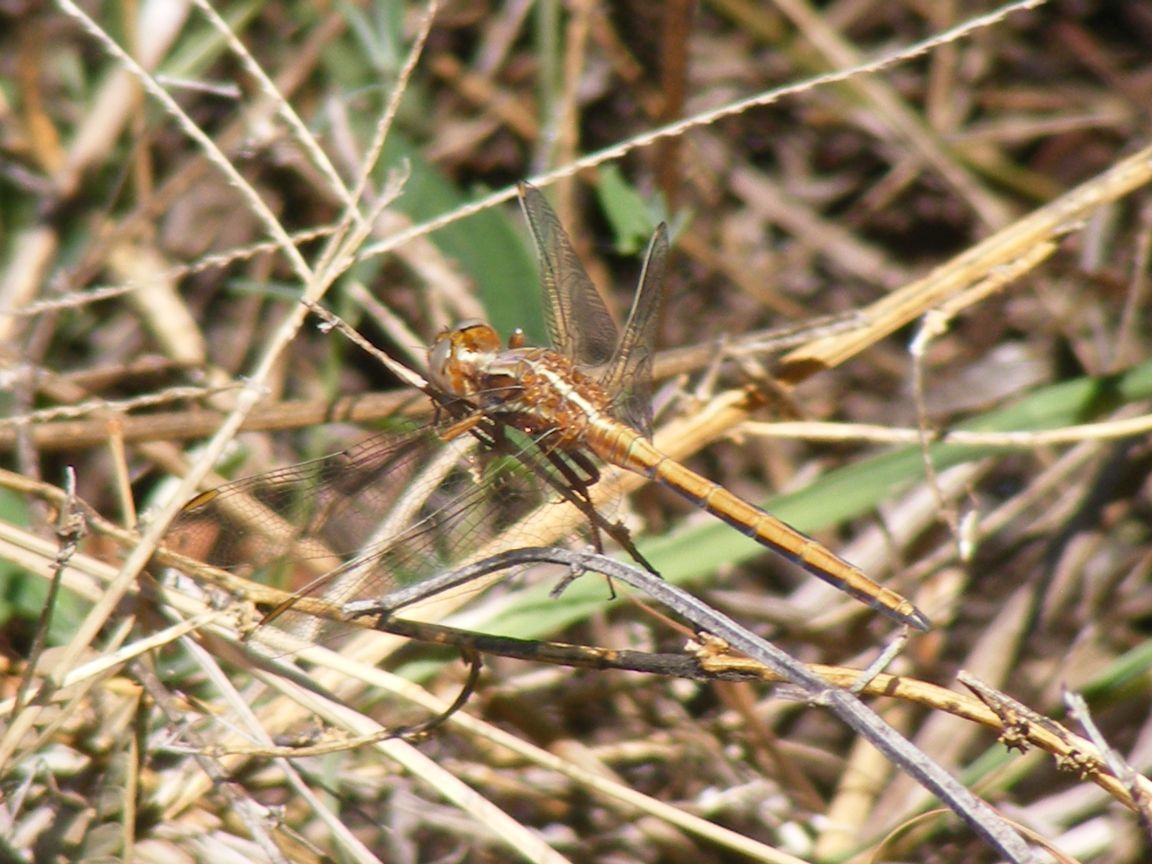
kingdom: Animalia
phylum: Arthropoda
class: Insecta
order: Odonata
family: Libellulidae
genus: Orthetrum
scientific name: Orthetrum caffrum
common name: Two-striped skimmer
